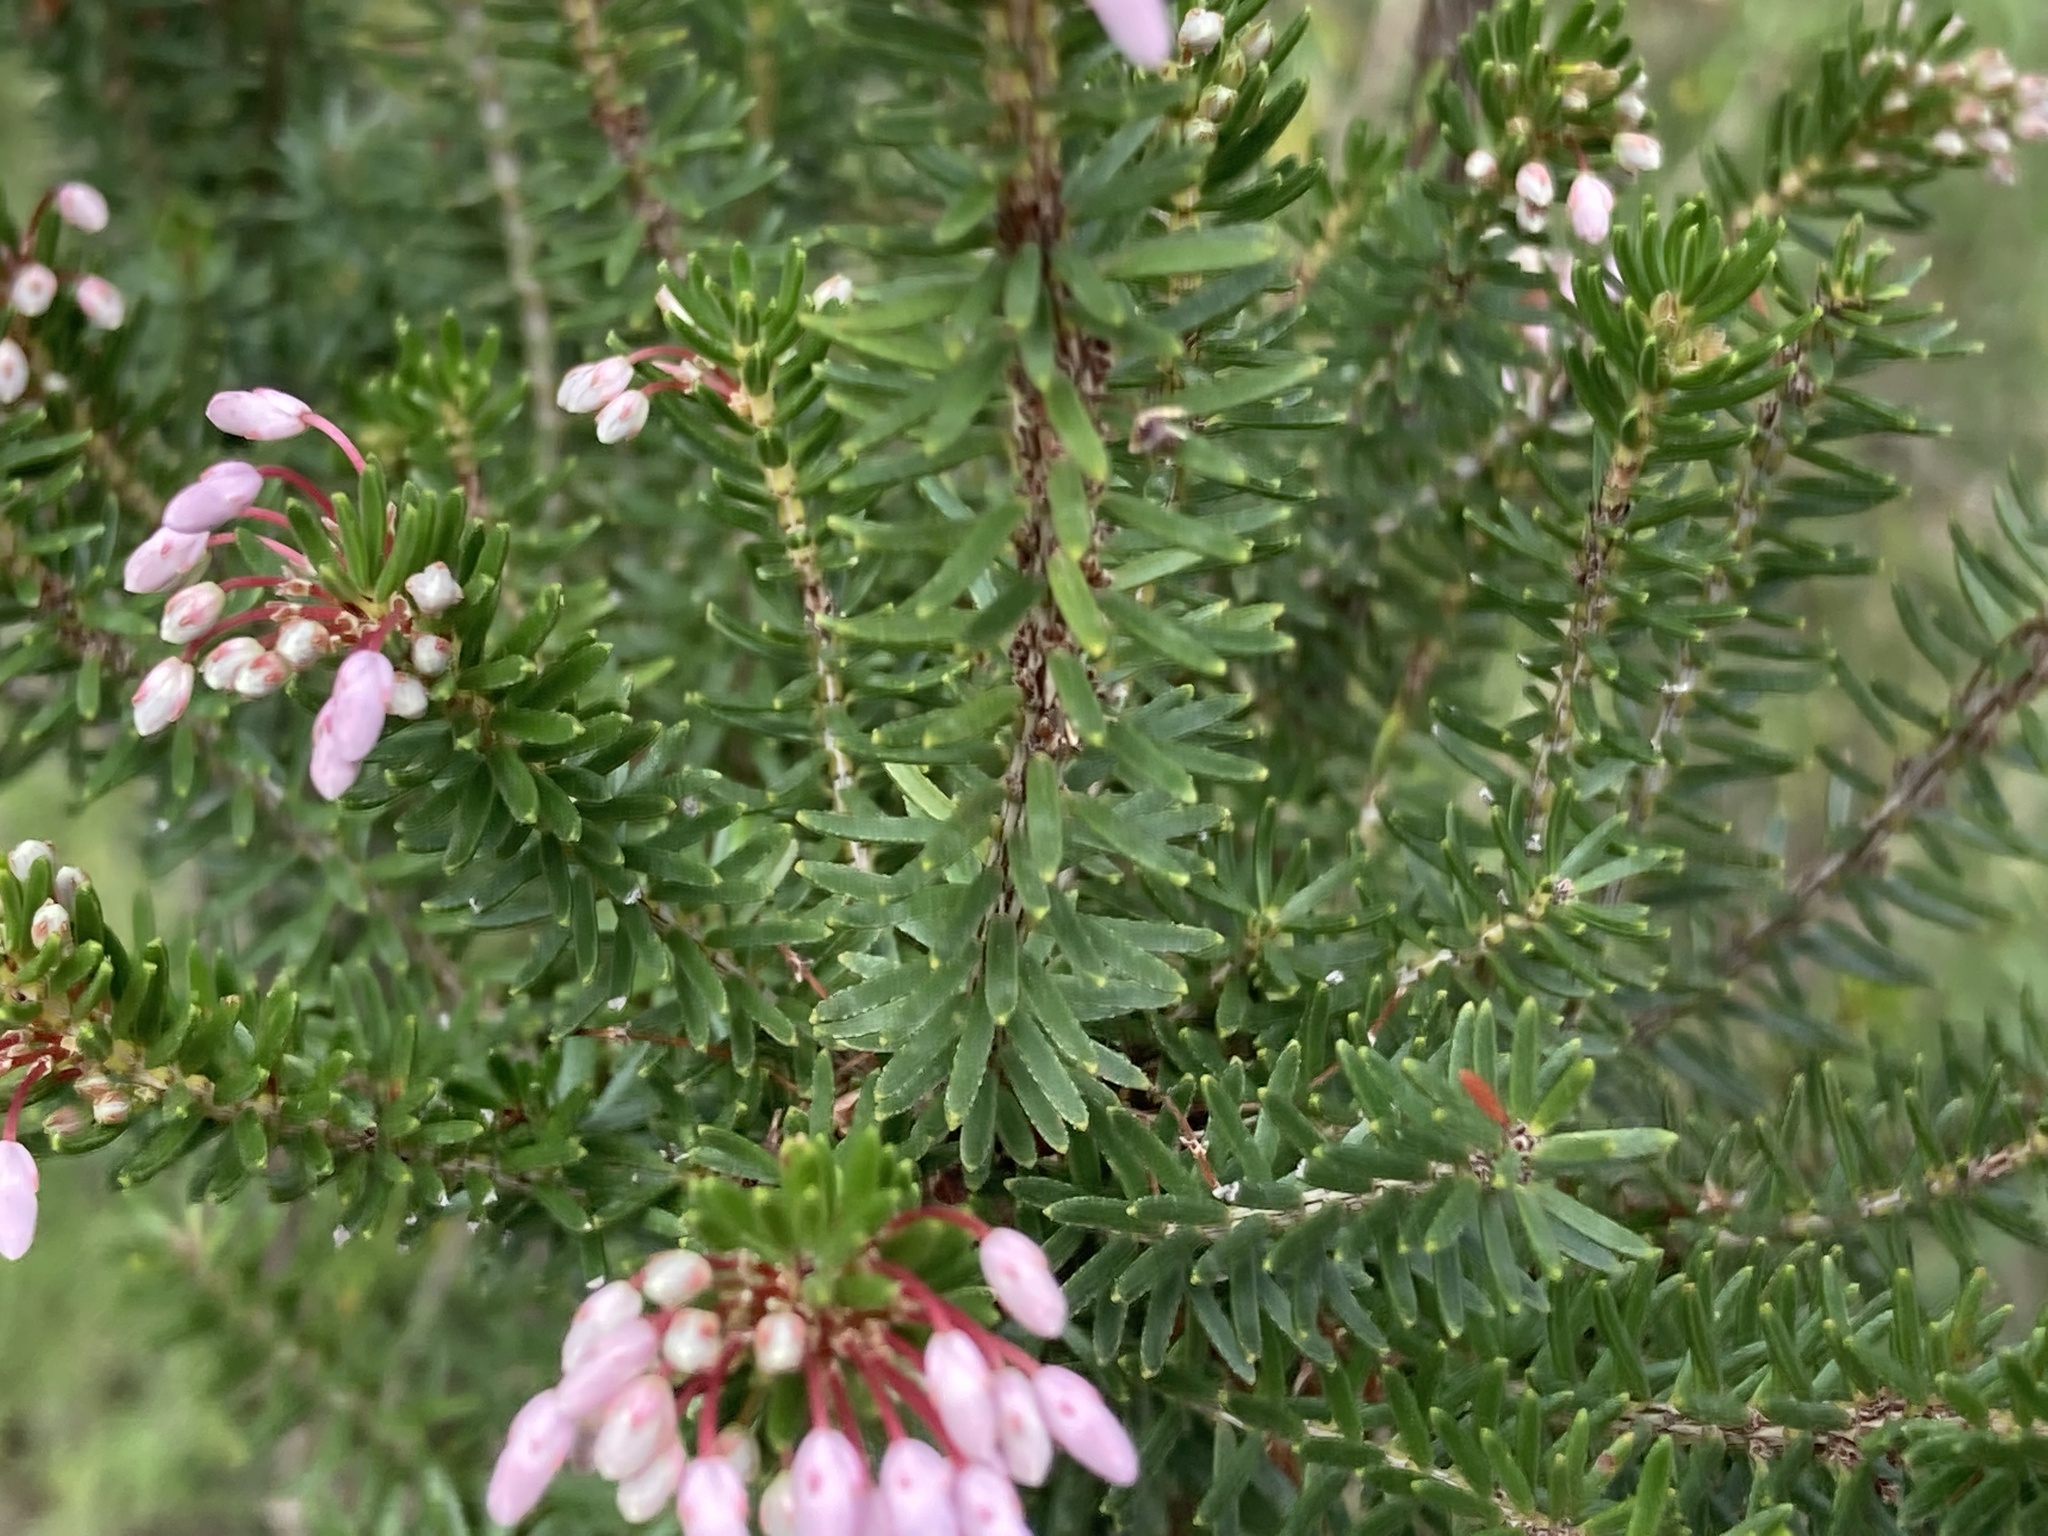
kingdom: Plantae
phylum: Tracheophyta
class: Magnoliopsida
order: Ericales
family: Ericaceae
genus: Erica
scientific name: Erica multiflora
